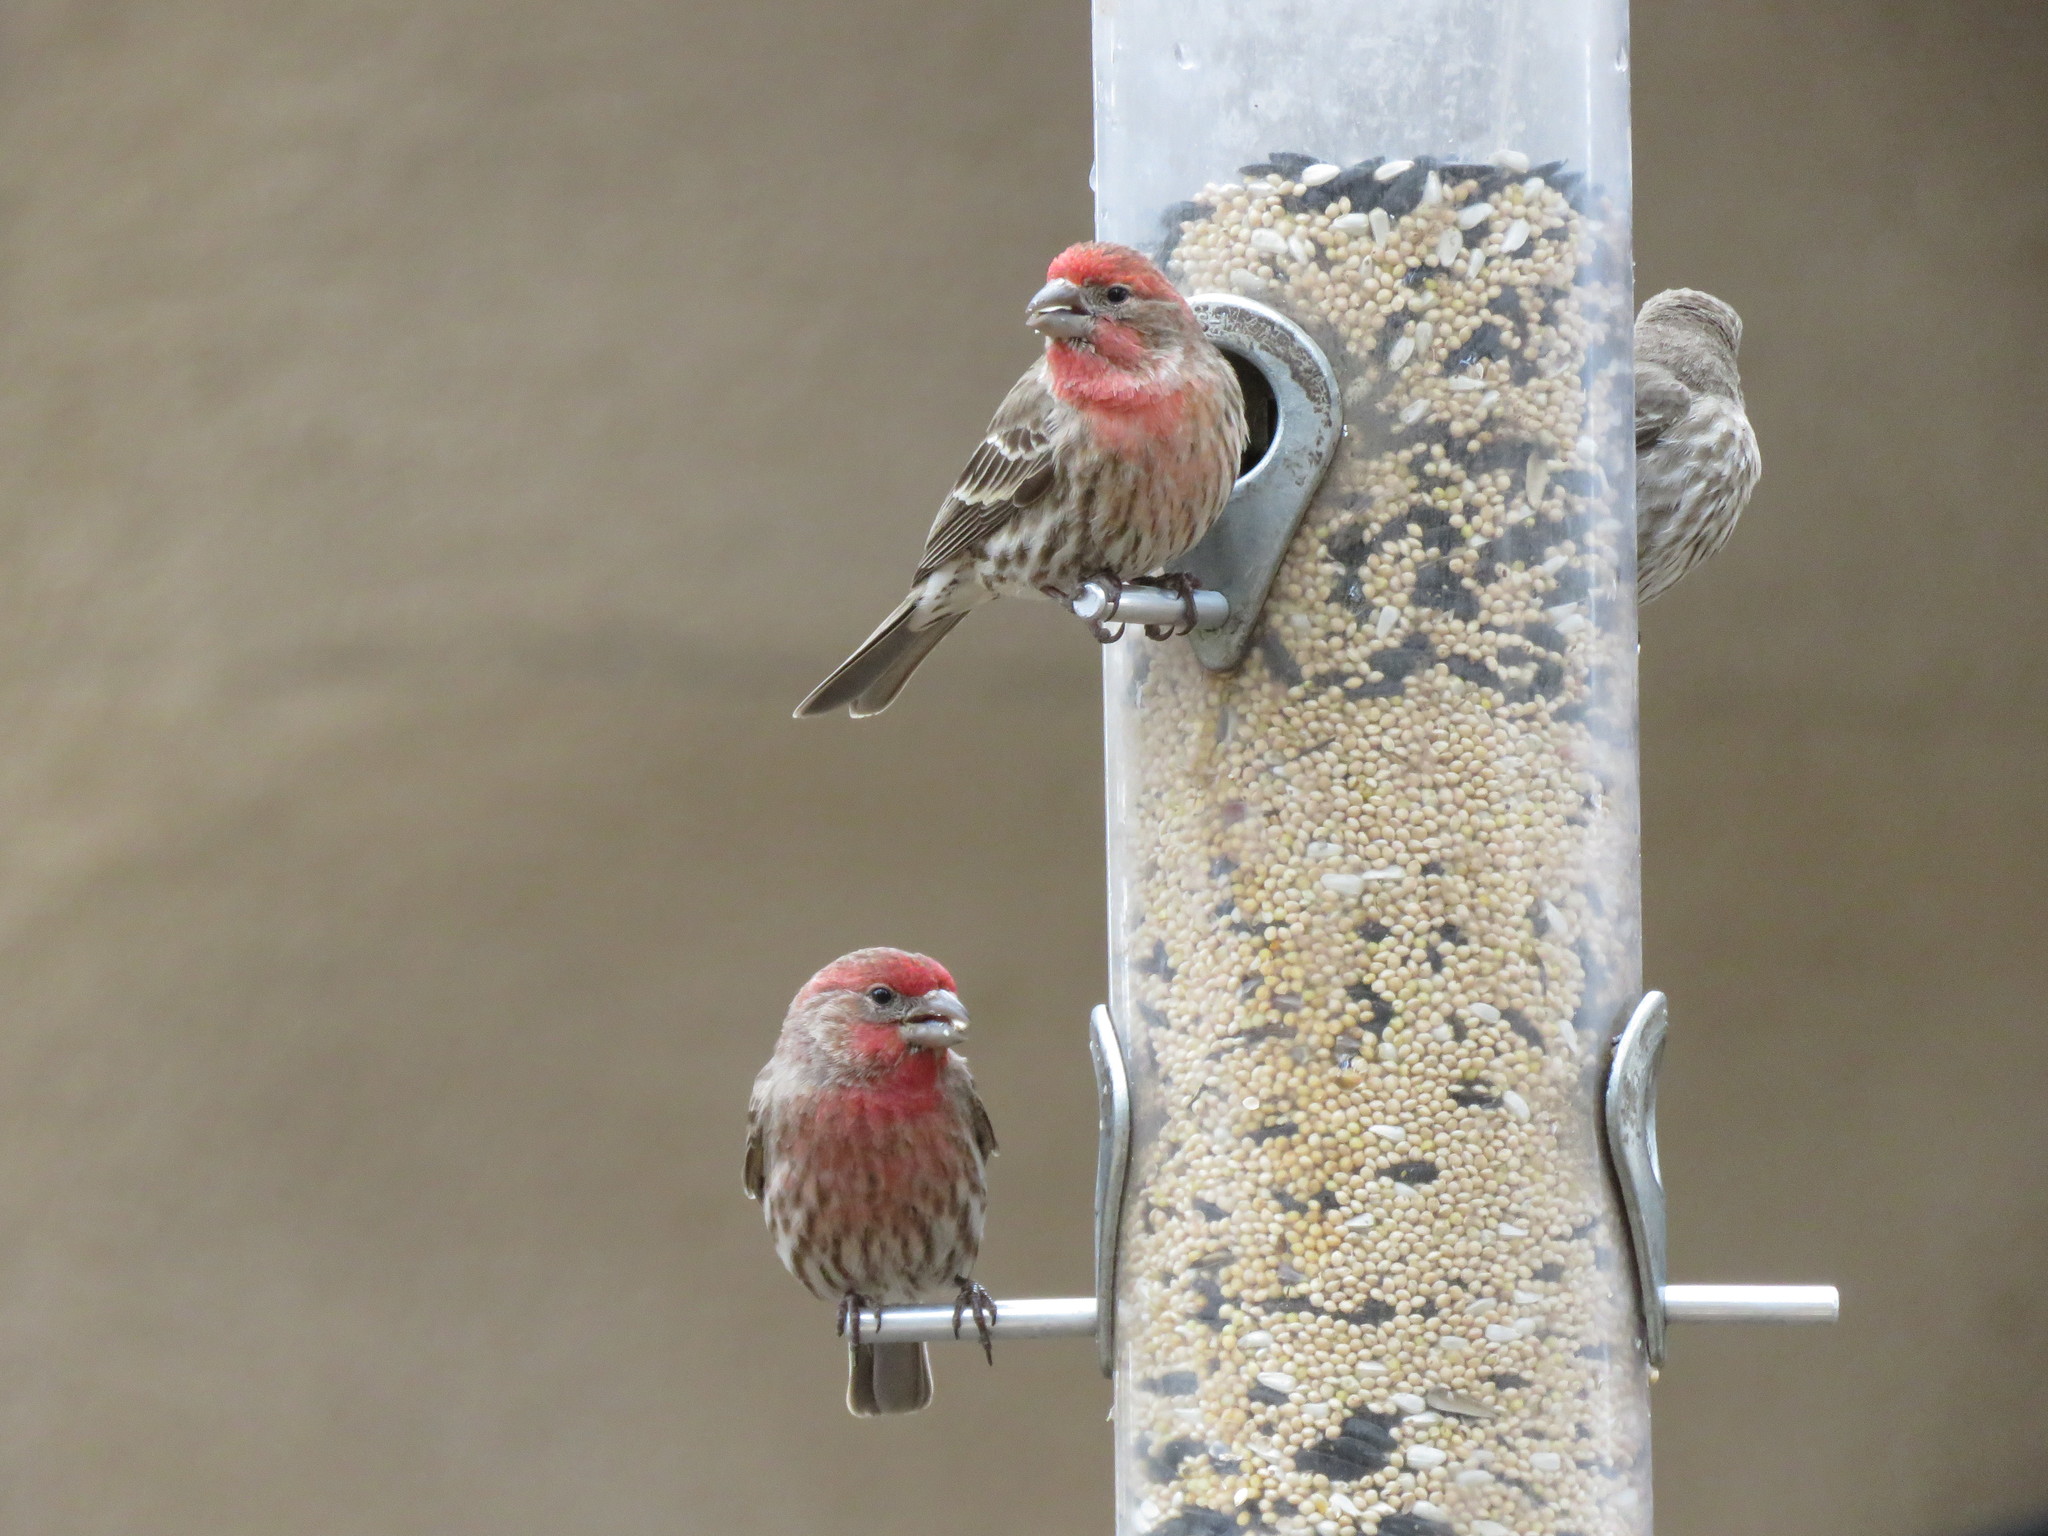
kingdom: Animalia
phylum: Chordata
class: Aves
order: Passeriformes
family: Fringillidae
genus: Haemorhous
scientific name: Haemorhous mexicanus
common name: House finch
